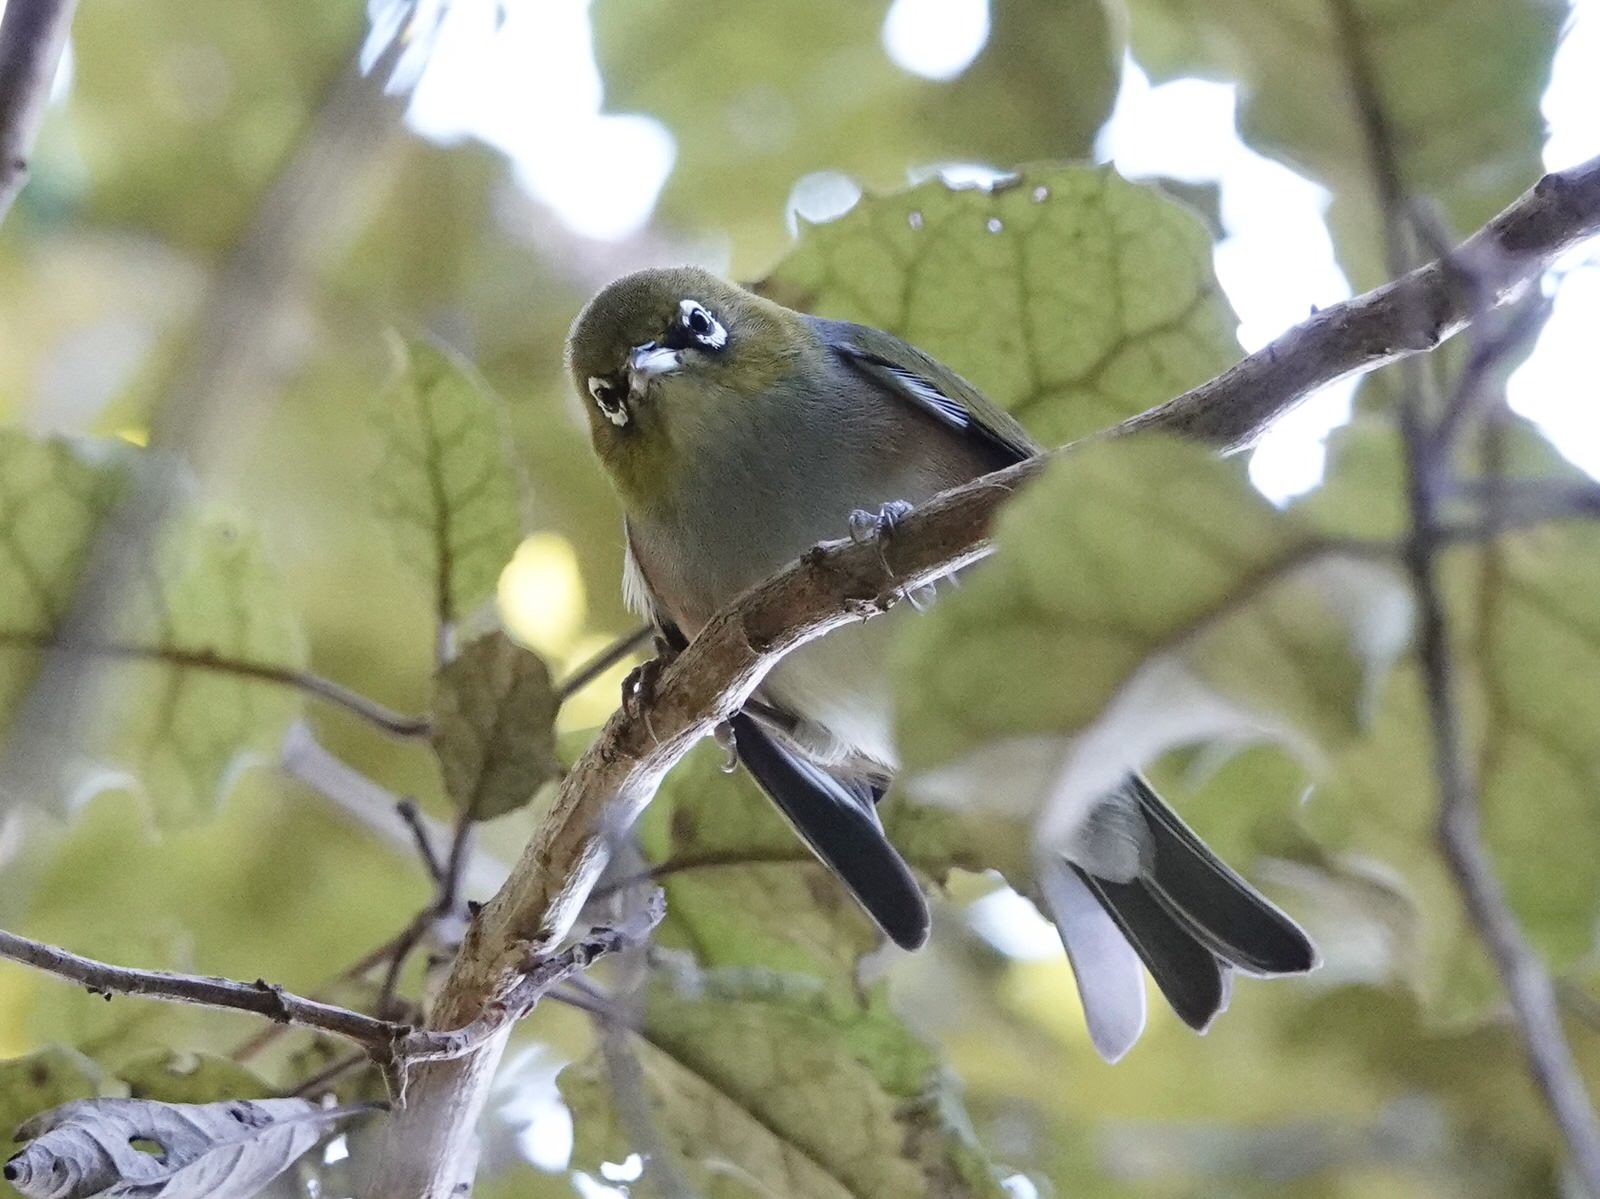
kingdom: Animalia
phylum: Chordata
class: Aves
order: Passeriformes
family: Zosteropidae
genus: Zosterops
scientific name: Zosterops lateralis
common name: Silvereye
